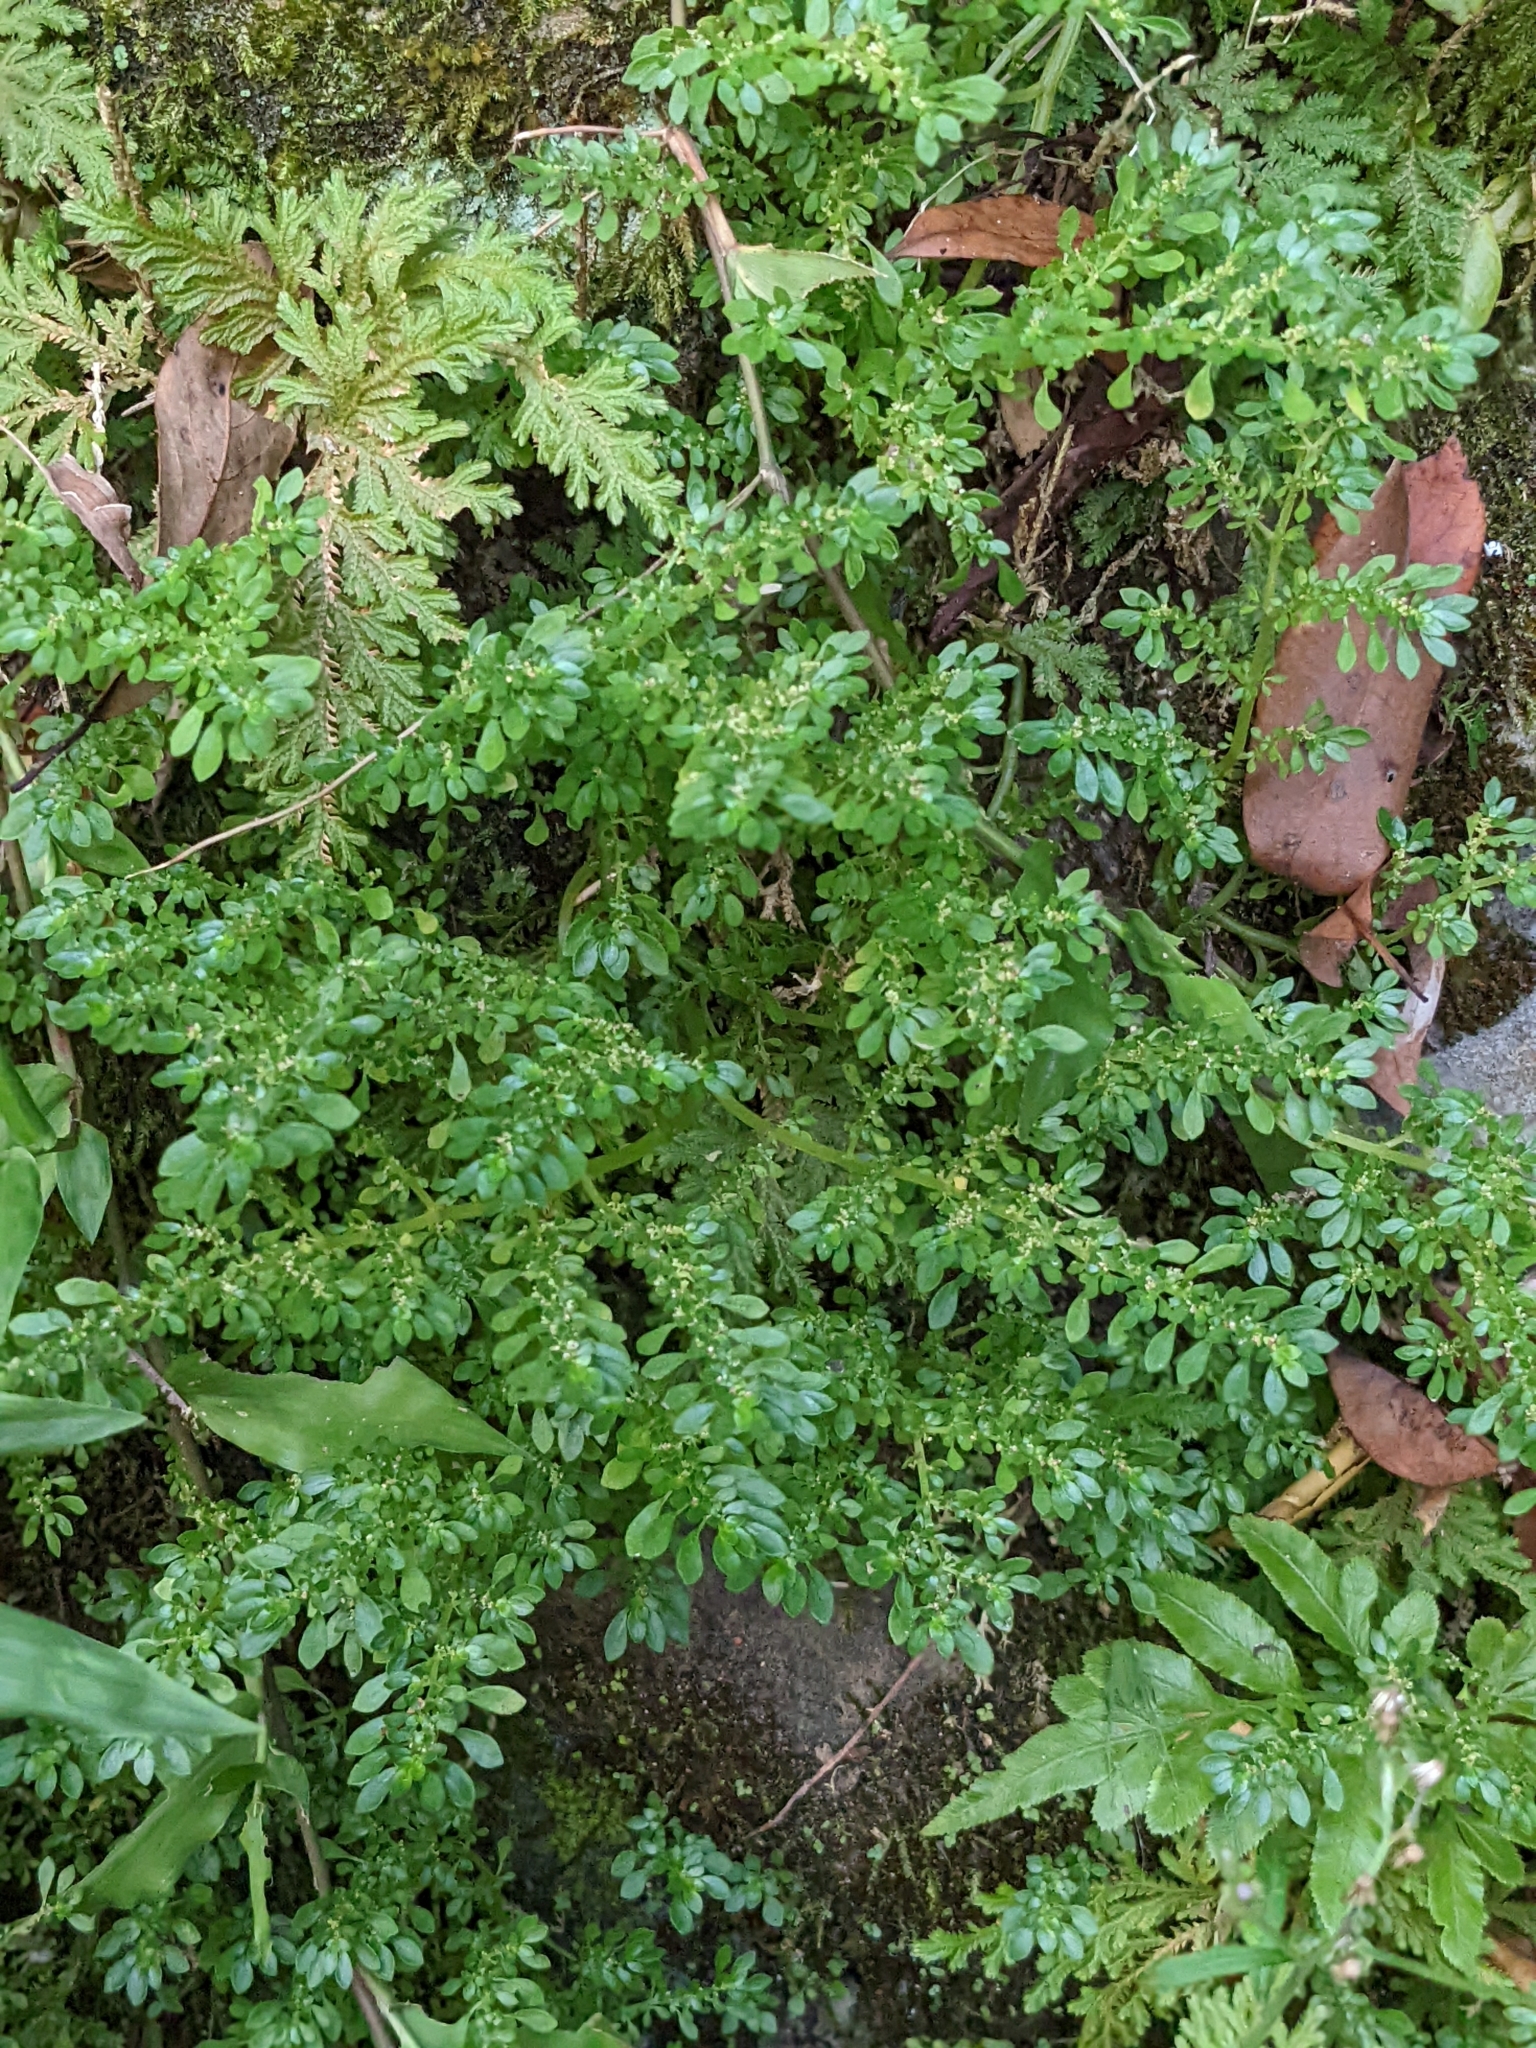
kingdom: Plantae
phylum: Tracheophyta
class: Magnoliopsida
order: Rosales
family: Urticaceae
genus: Pilea
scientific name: Pilea microphylla
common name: Artillery-plant
